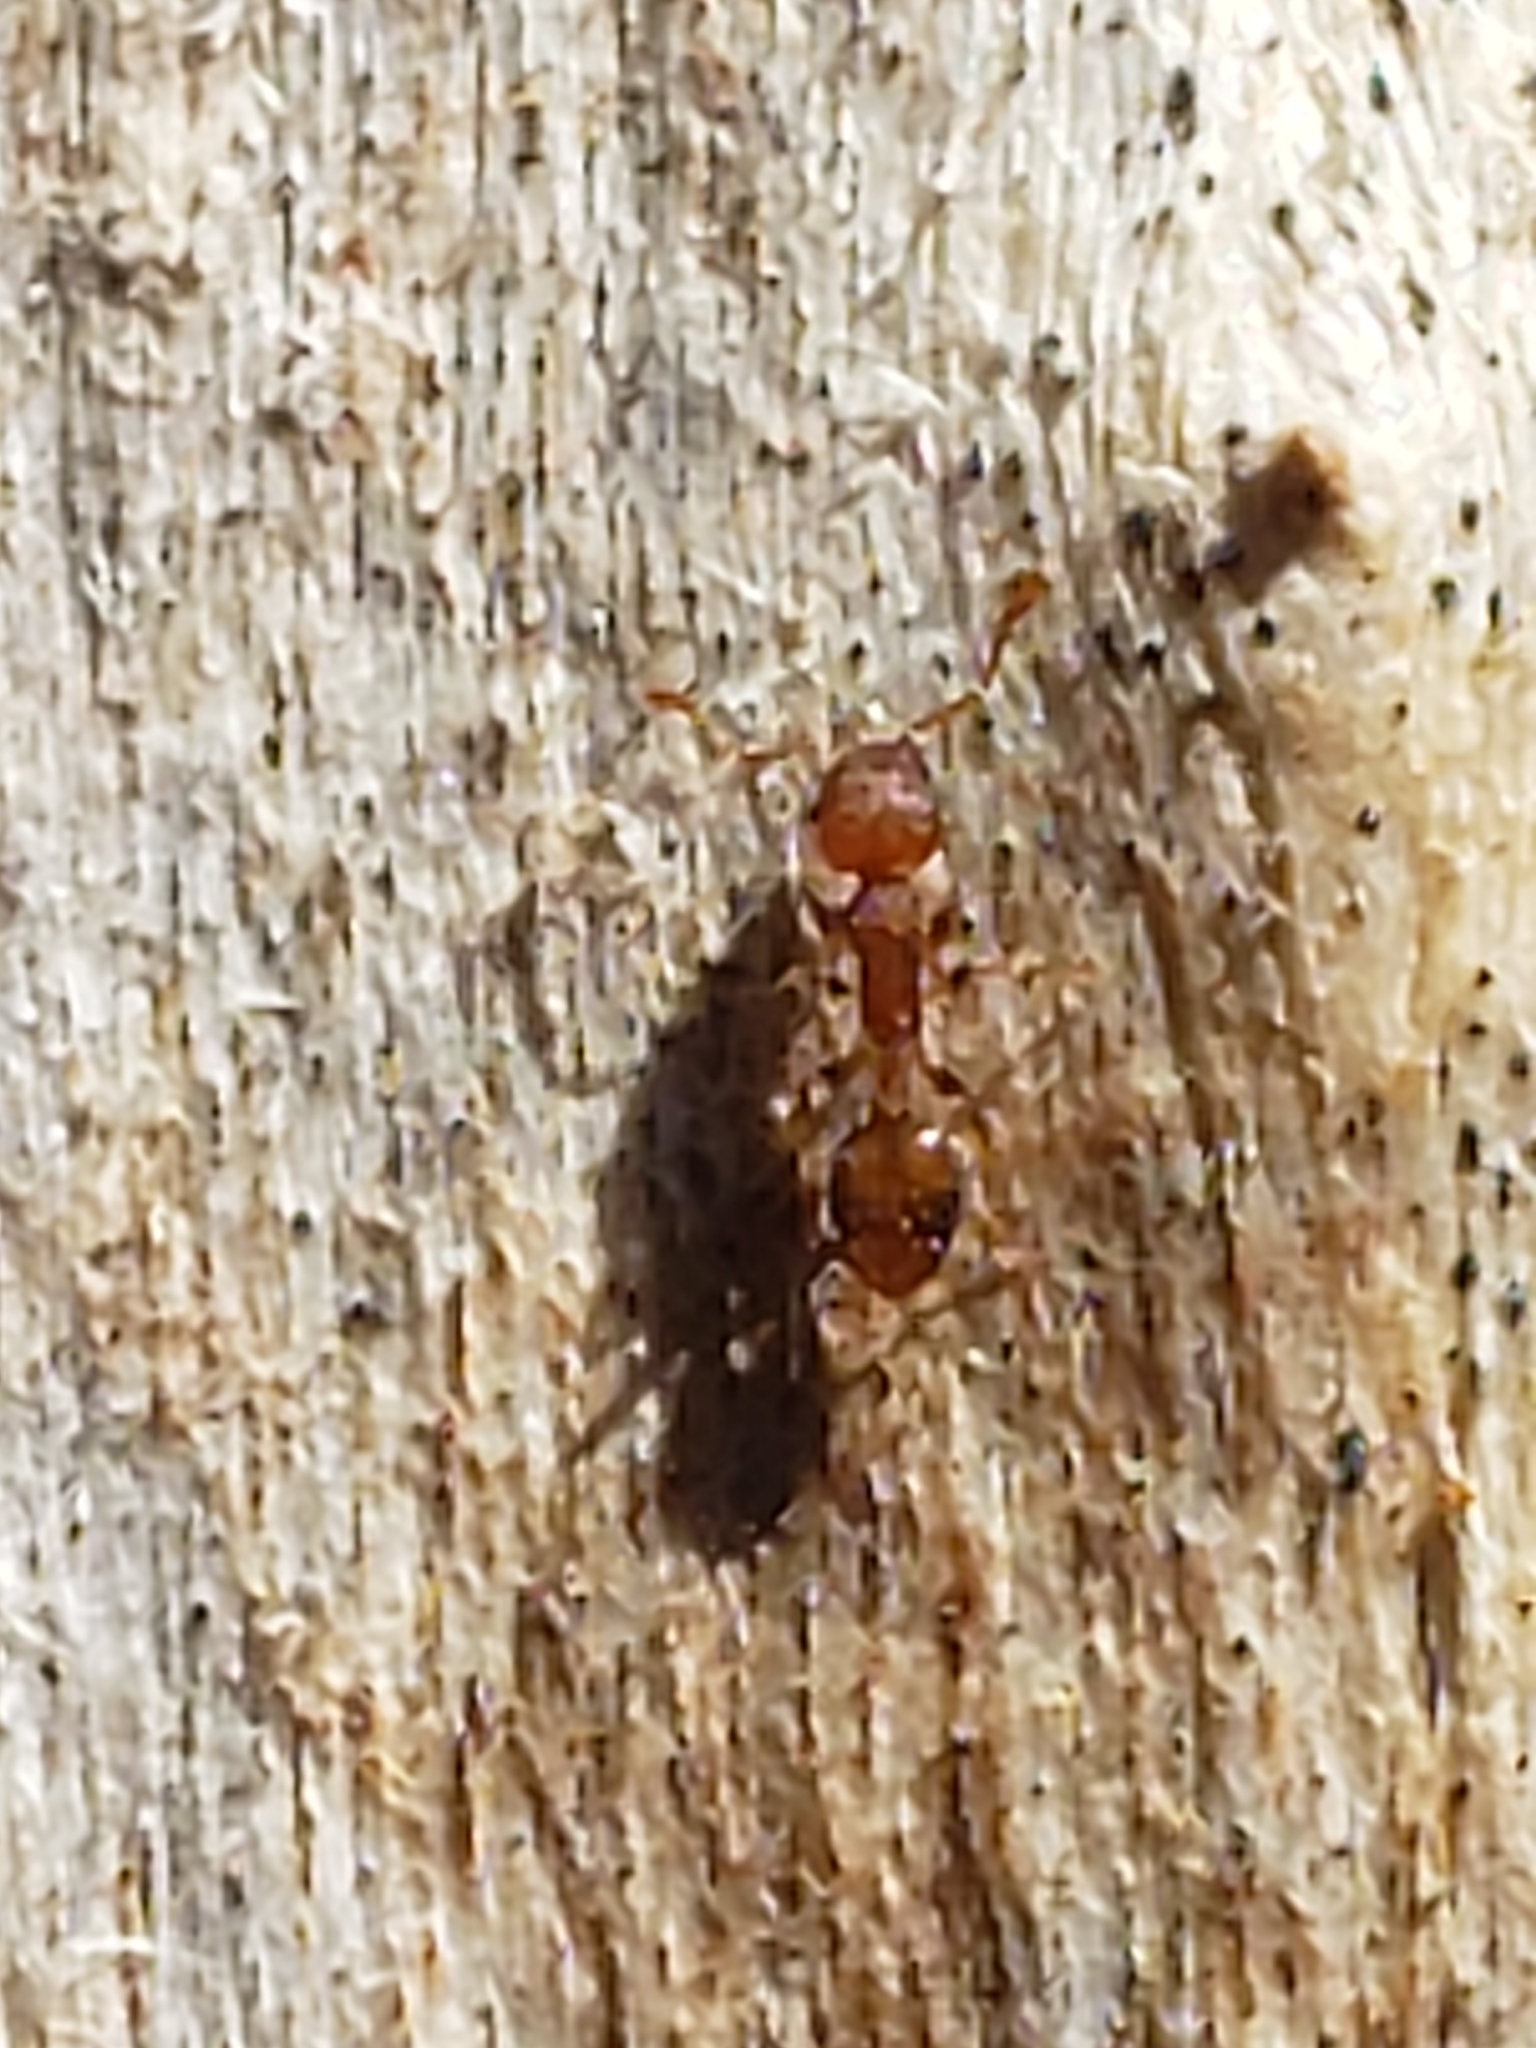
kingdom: Animalia
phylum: Arthropoda
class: Insecta
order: Hymenoptera
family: Formicidae
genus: Temnothorax
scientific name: Temnothorax curvispinosus
